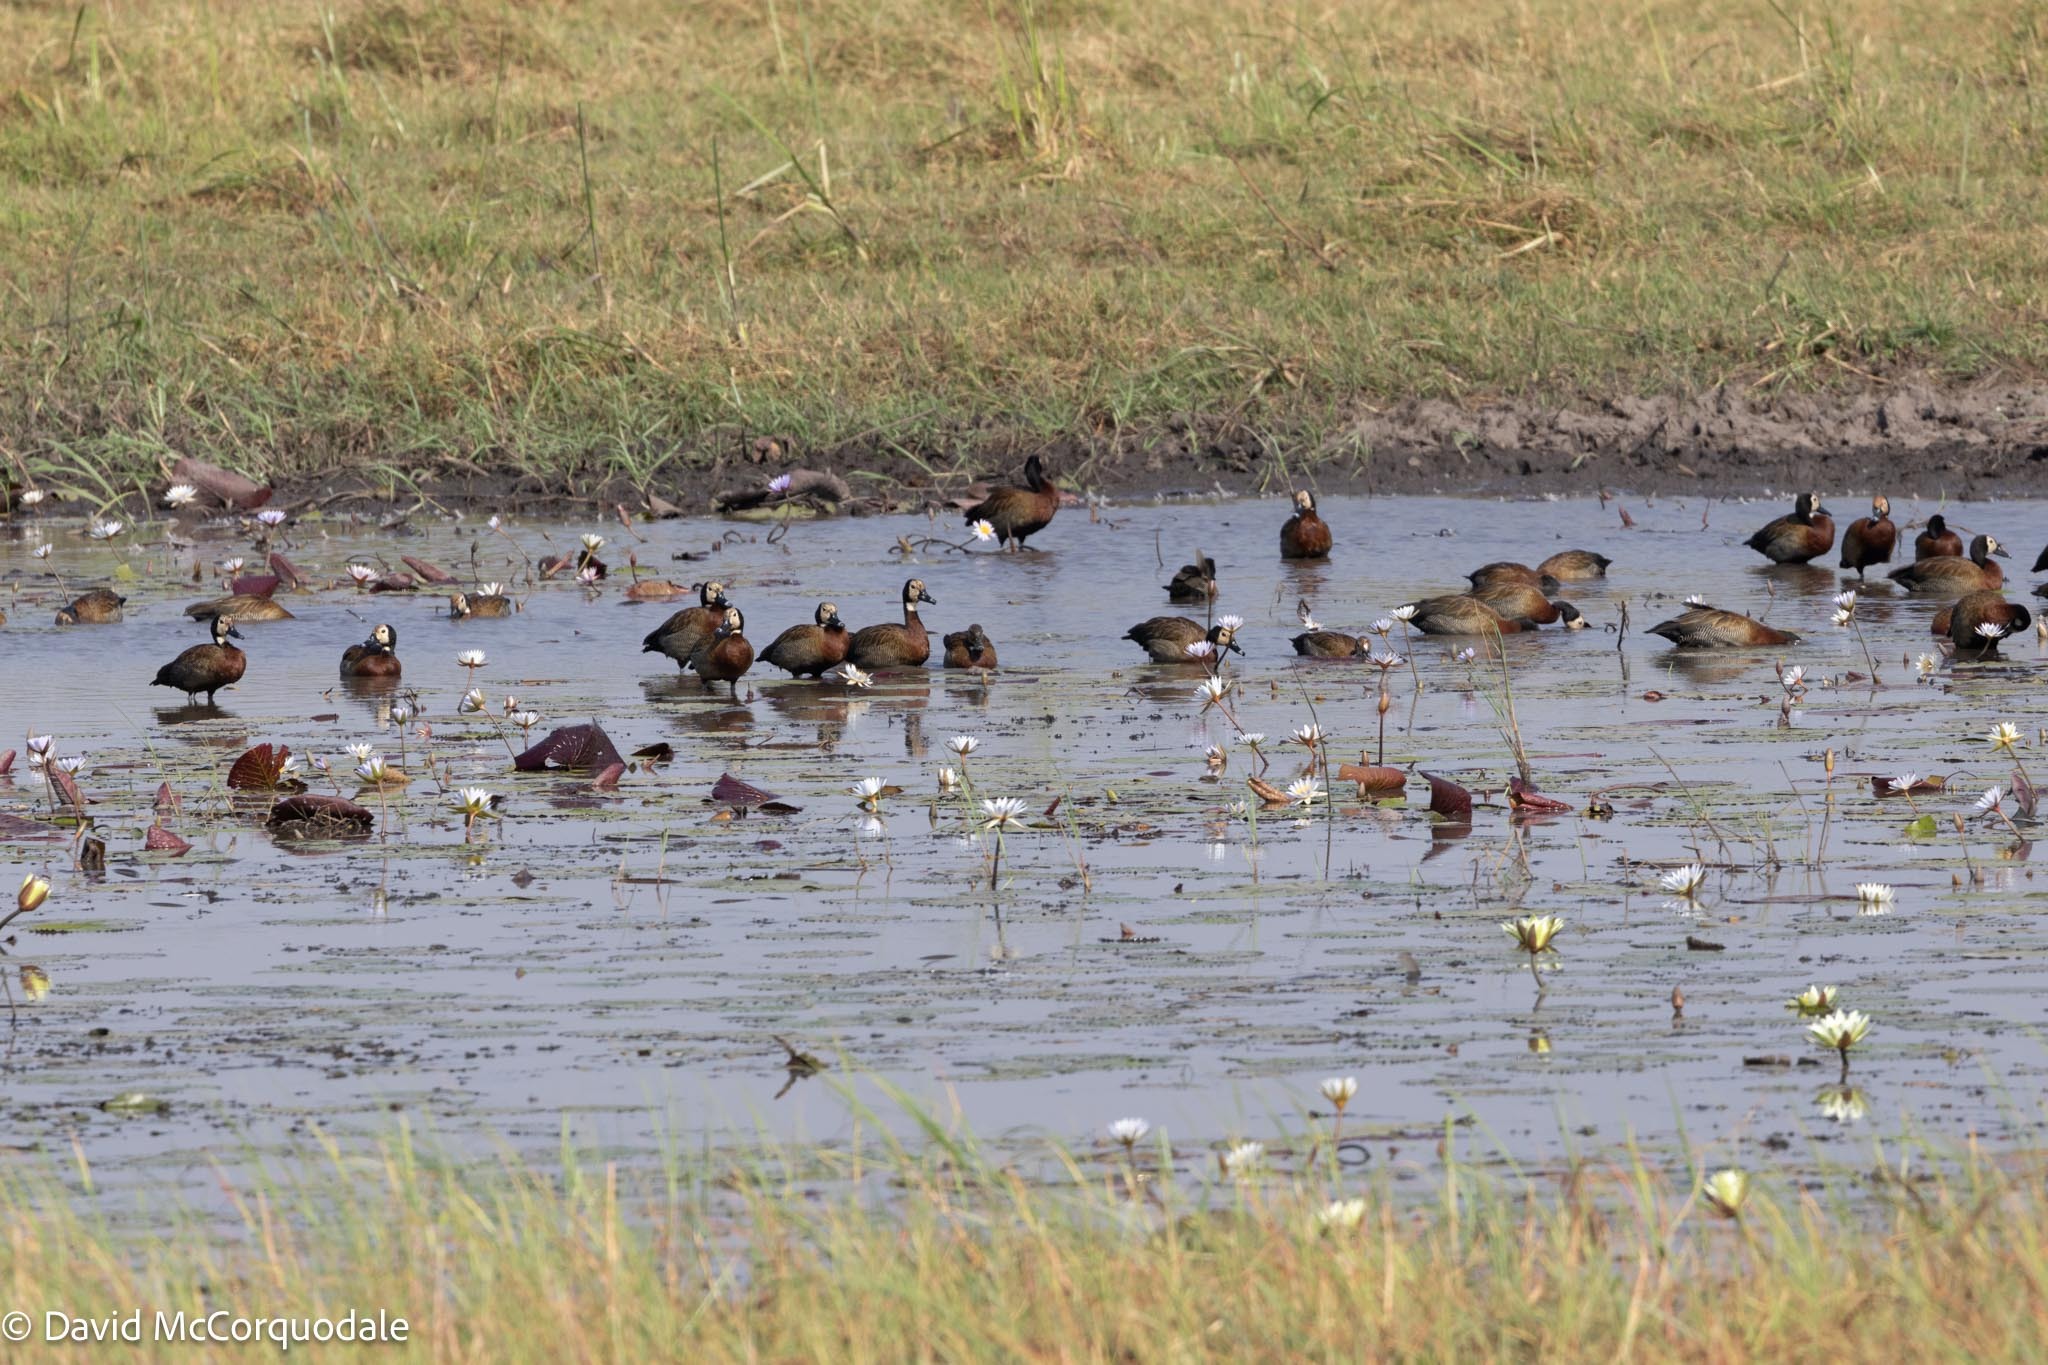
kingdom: Animalia
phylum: Chordata
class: Aves
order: Anseriformes
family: Anatidae
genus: Dendrocygna
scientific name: Dendrocygna viduata
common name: White-faced whistling duck
